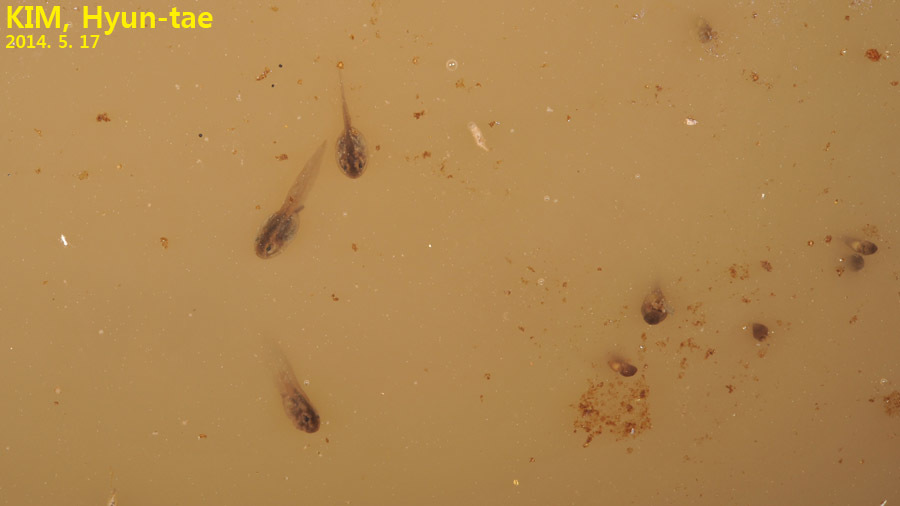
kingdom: Animalia
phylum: Chordata
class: Amphibia
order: Anura
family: Bombinatoridae
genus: Bombina
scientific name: Bombina orientalis
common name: Oriental firebelly toad
